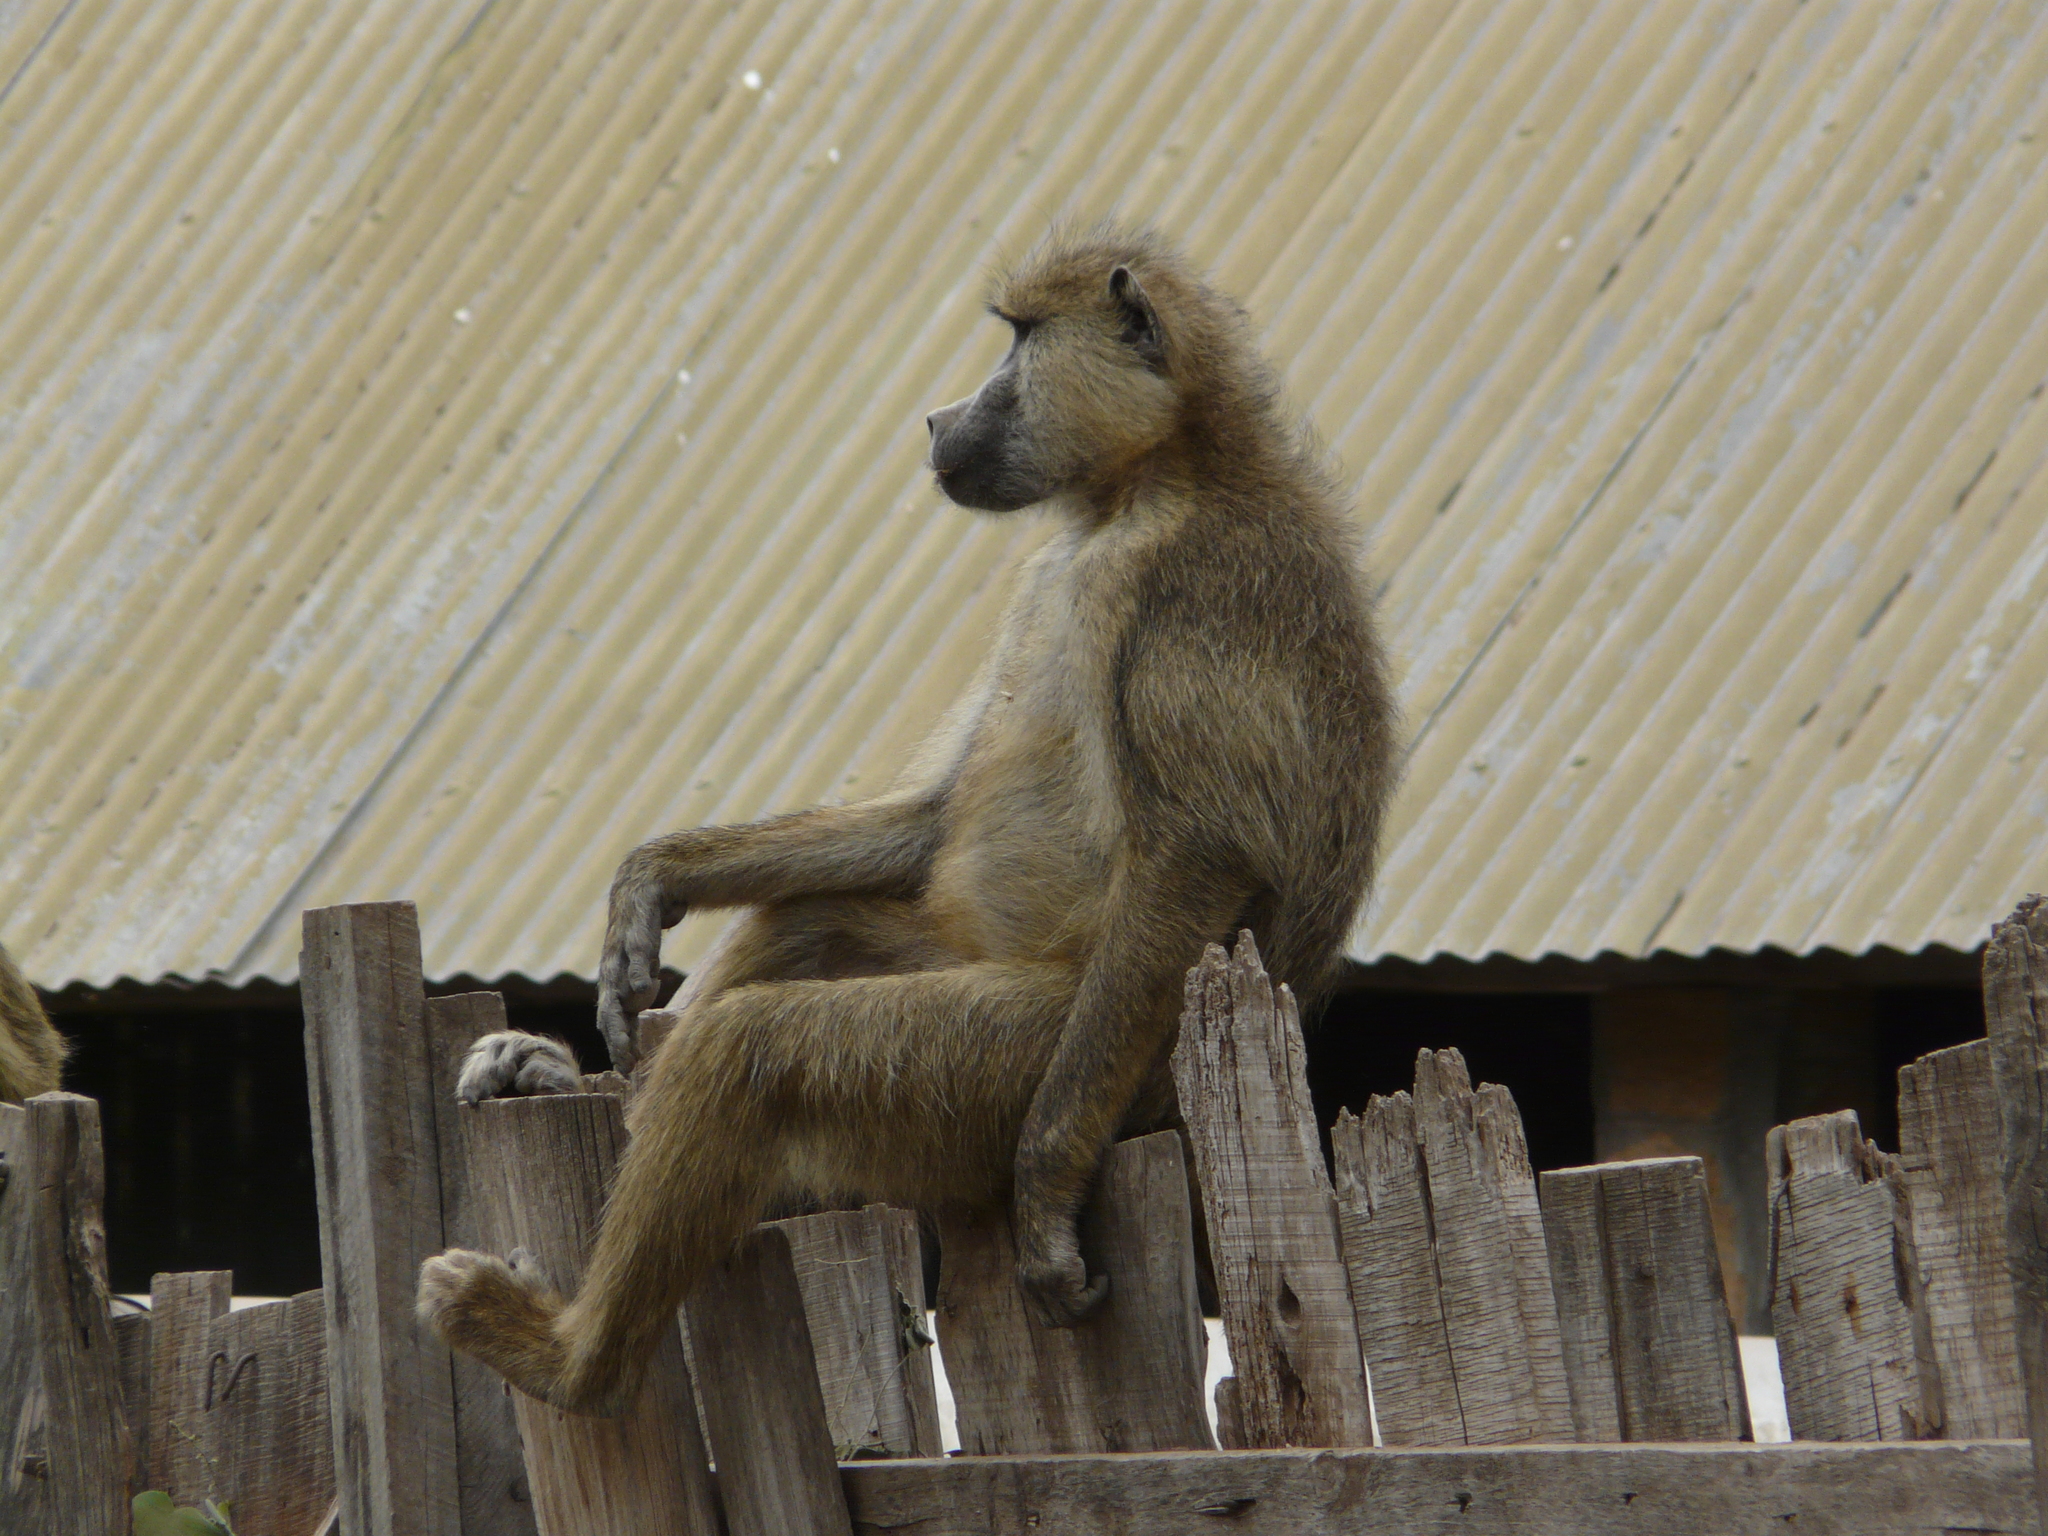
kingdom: Animalia
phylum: Chordata
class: Mammalia
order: Primates
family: Cercopithecidae
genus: Papio
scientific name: Papio cynocephalus
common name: Yellow baboon
